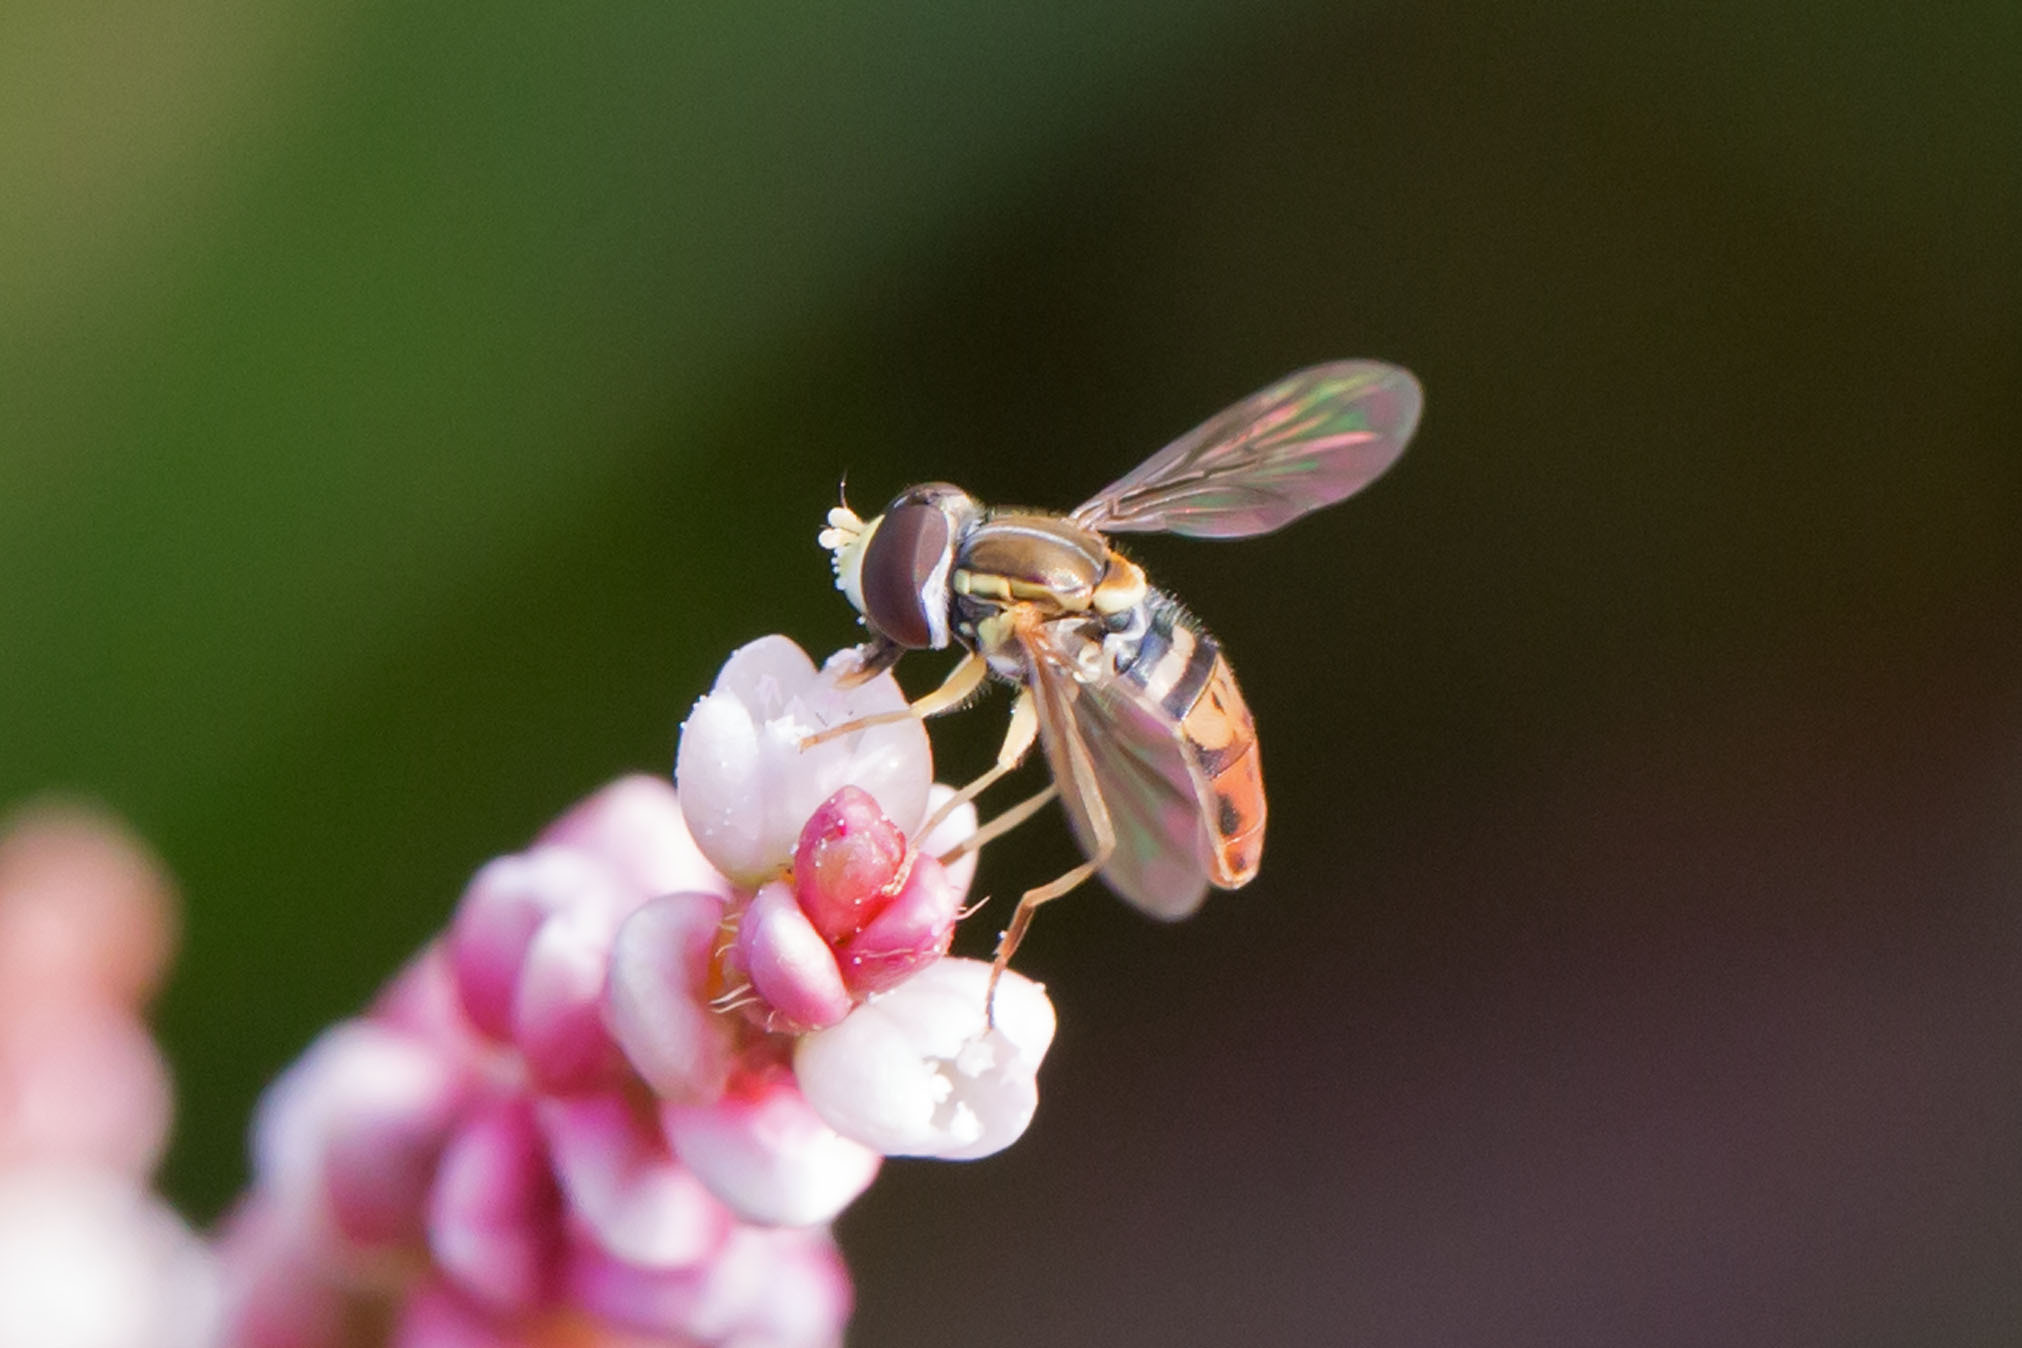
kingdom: Animalia
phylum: Arthropoda
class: Insecta
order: Diptera
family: Syrphidae
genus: Toxomerus
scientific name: Toxomerus marginatus
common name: Syrphid fly
